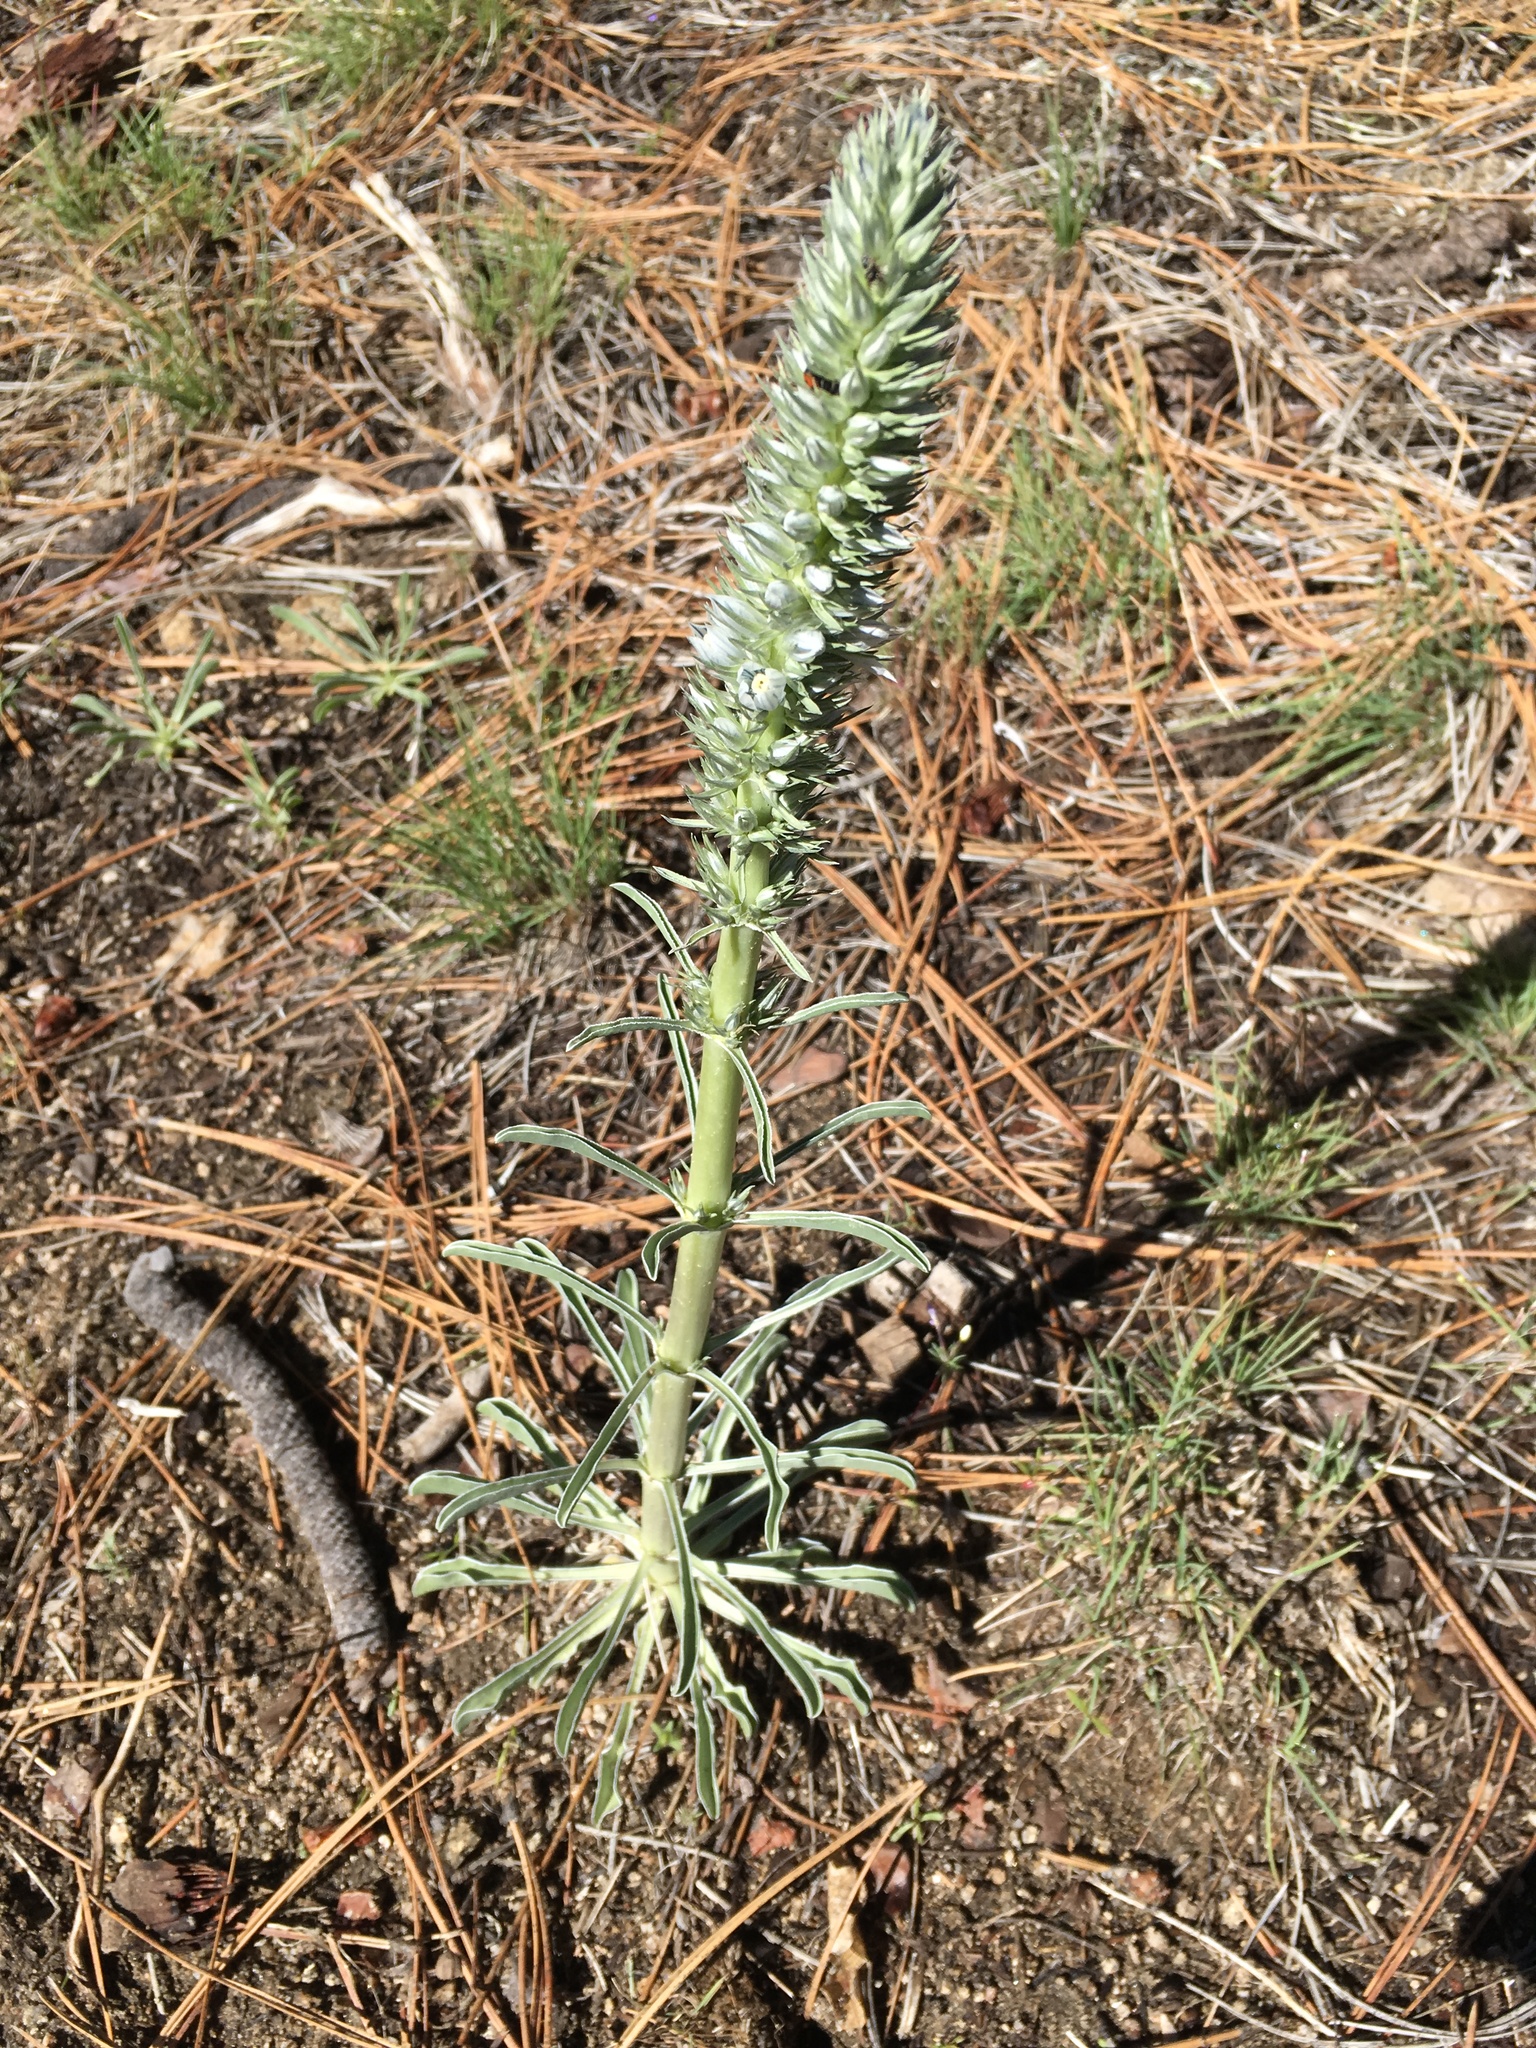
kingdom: Plantae
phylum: Tracheophyta
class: Magnoliopsida
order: Gentianales
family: Gentianaceae
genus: Frasera
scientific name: Frasera tubulosa
